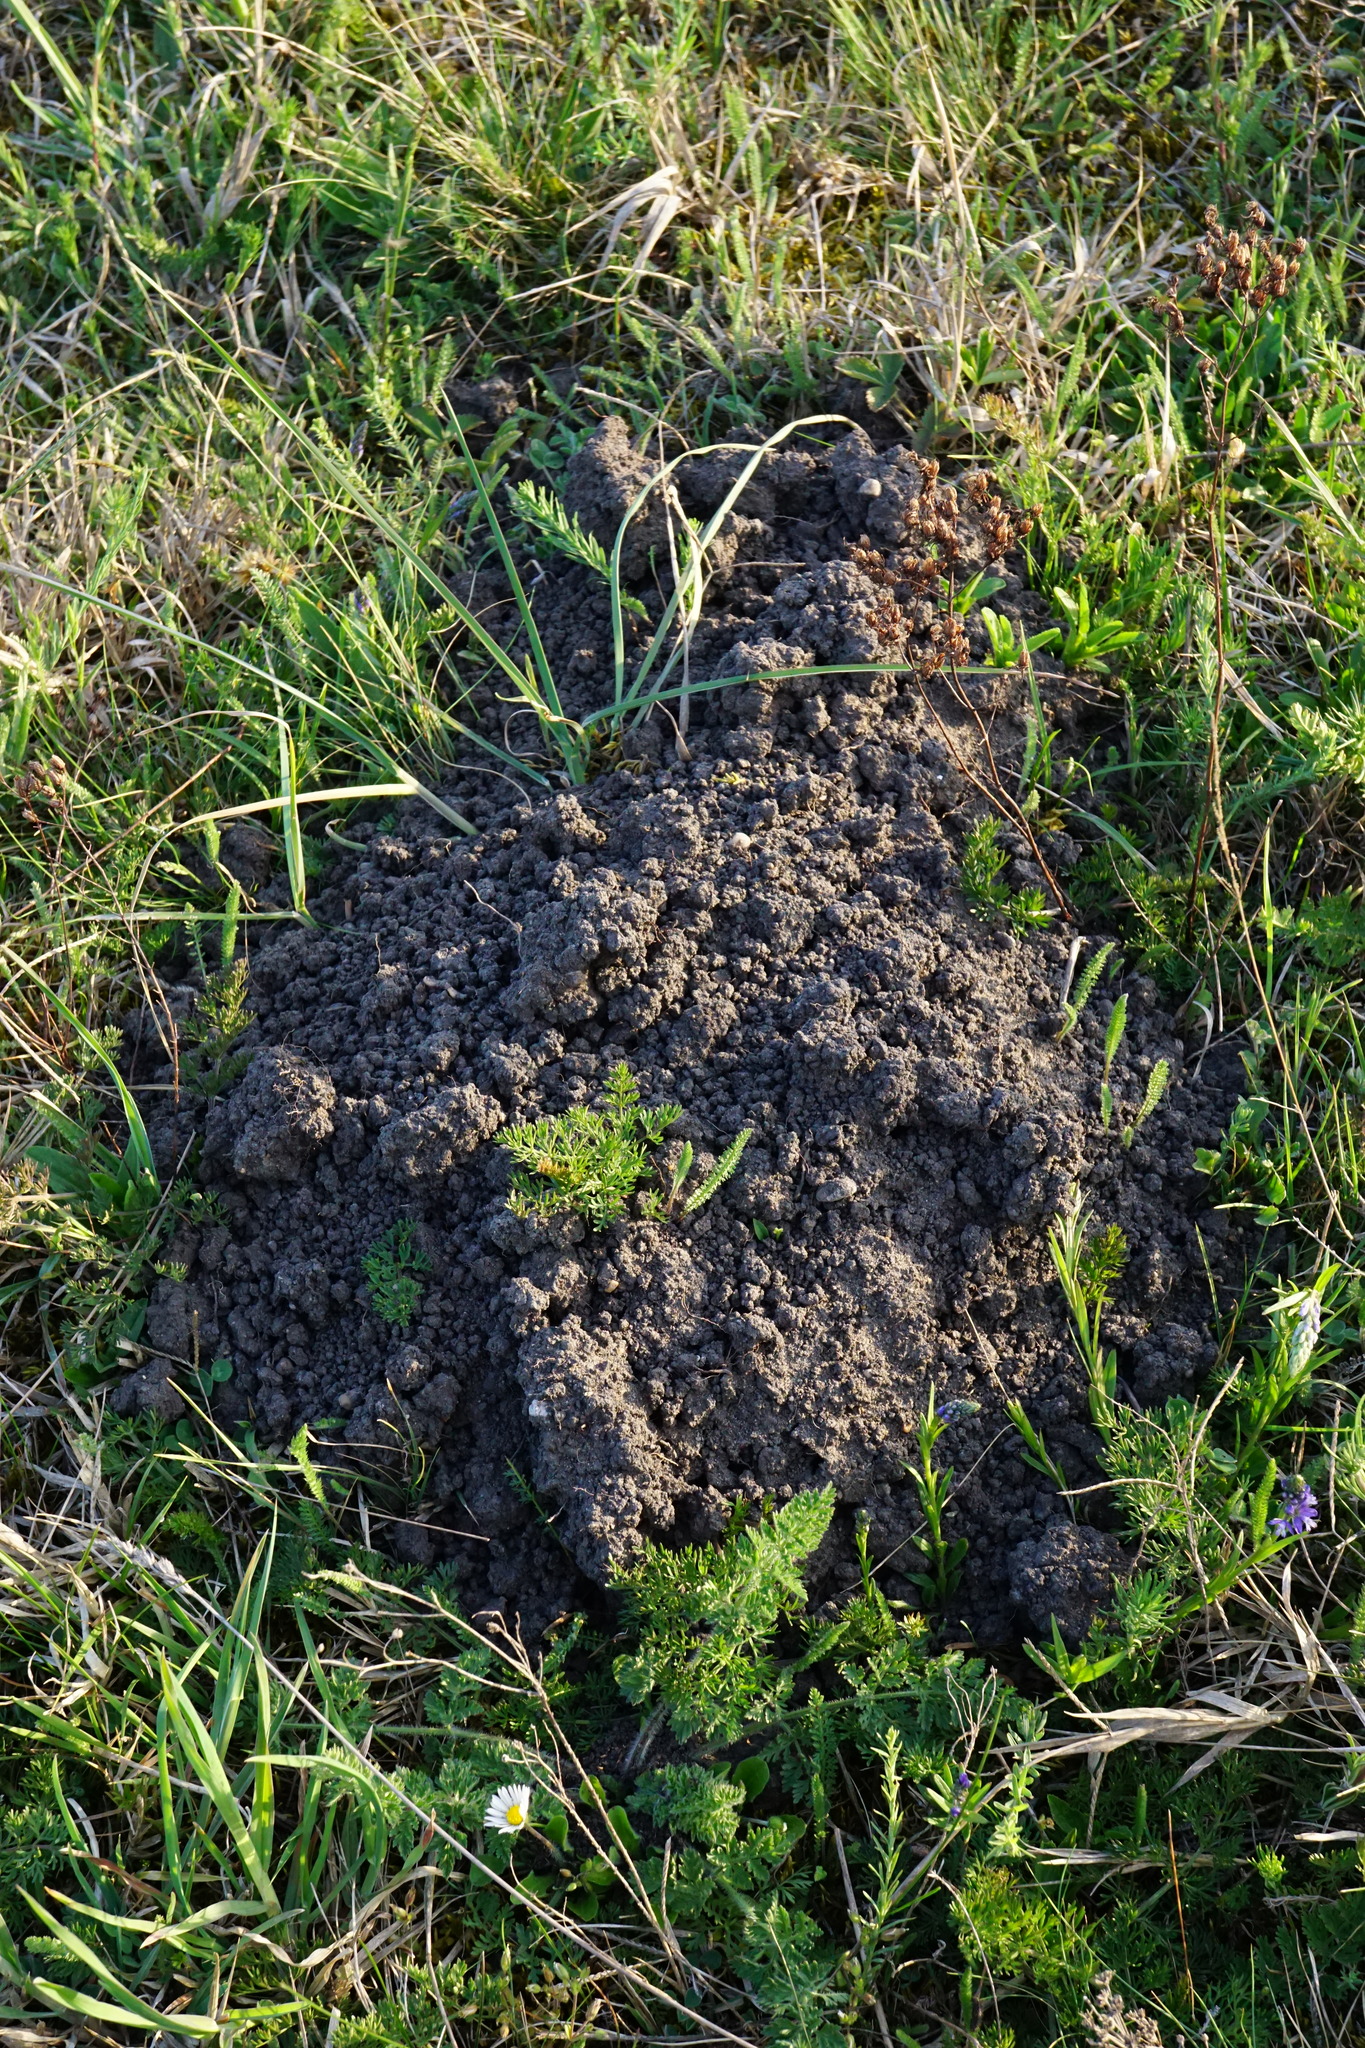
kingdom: Animalia
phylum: Chordata
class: Mammalia
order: Soricomorpha
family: Talpidae
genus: Talpa
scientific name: Talpa europaea
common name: European mole
